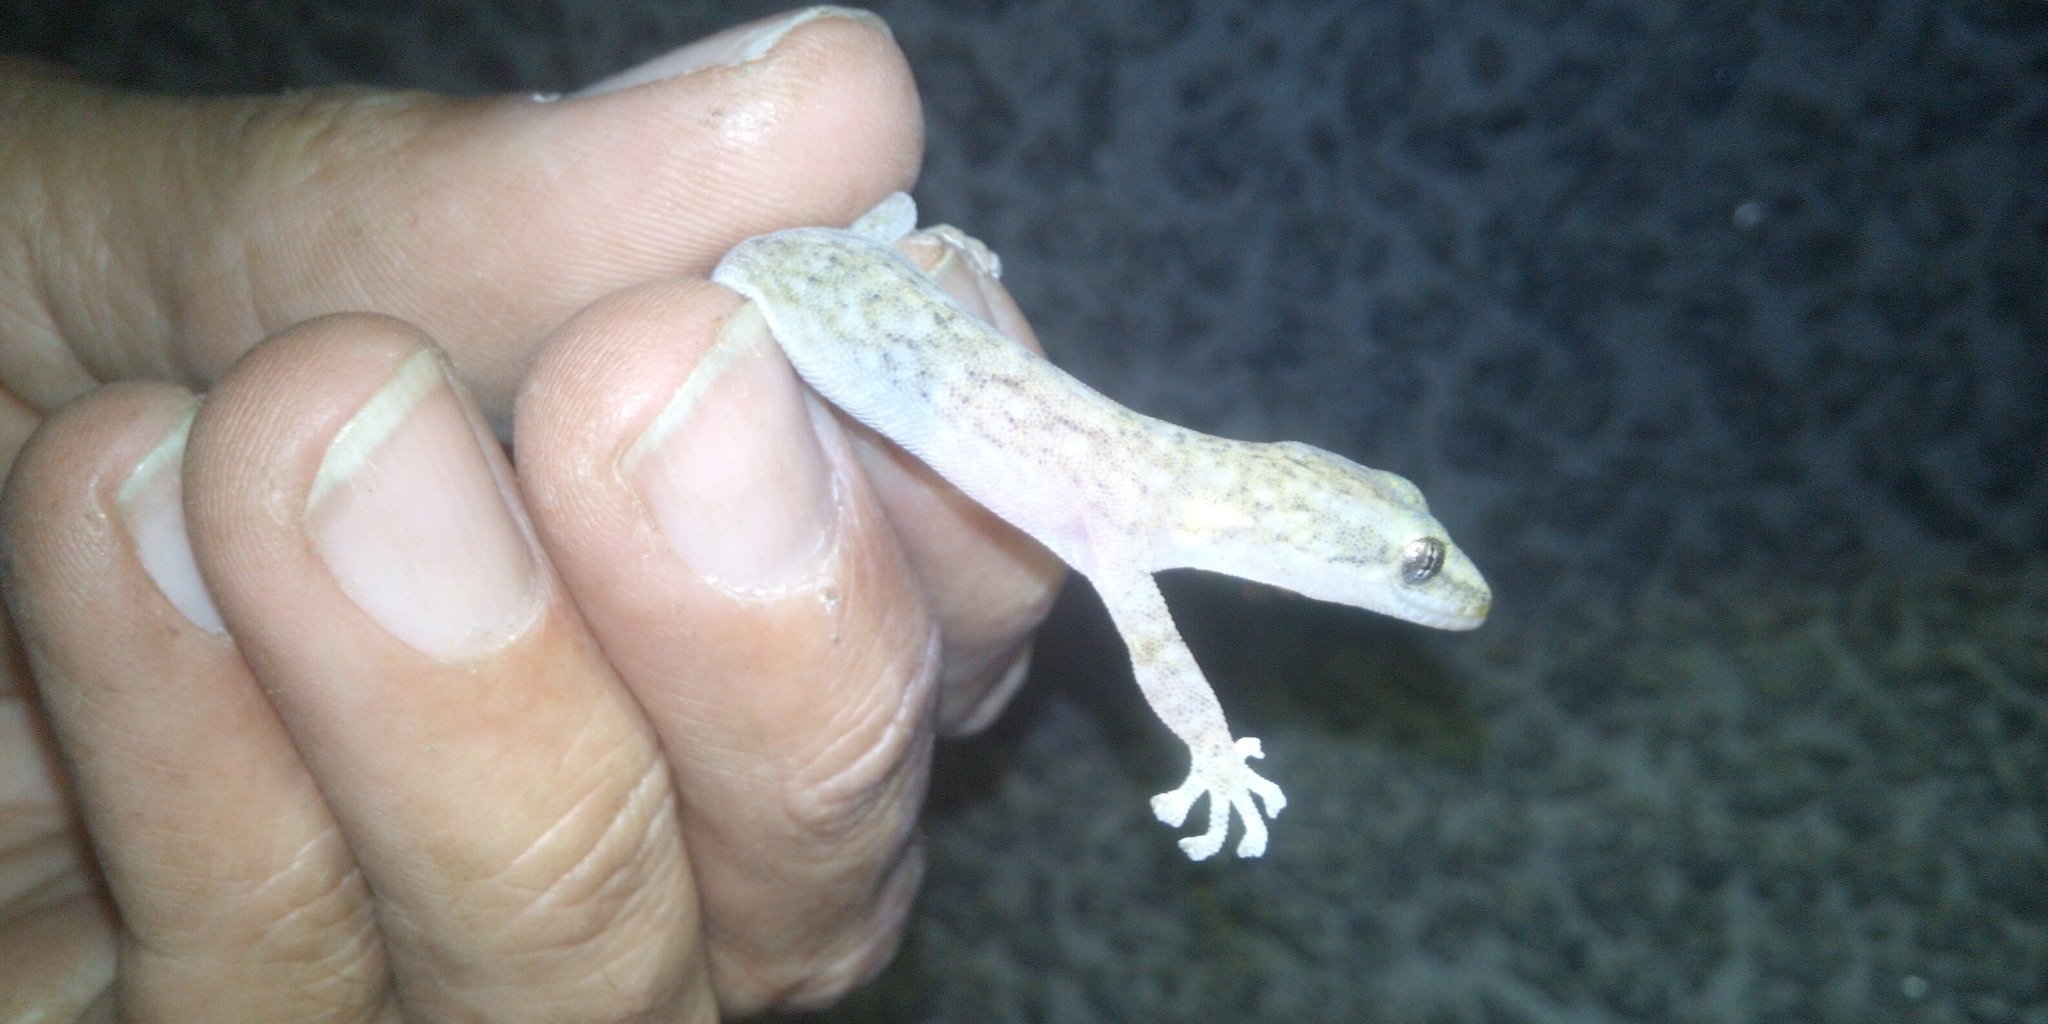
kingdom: Animalia
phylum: Chordata
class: Squamata
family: Gekkonidae
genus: Afrogecko
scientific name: Afrogecko porphyreus
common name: Marbled leaf-toed gecko
